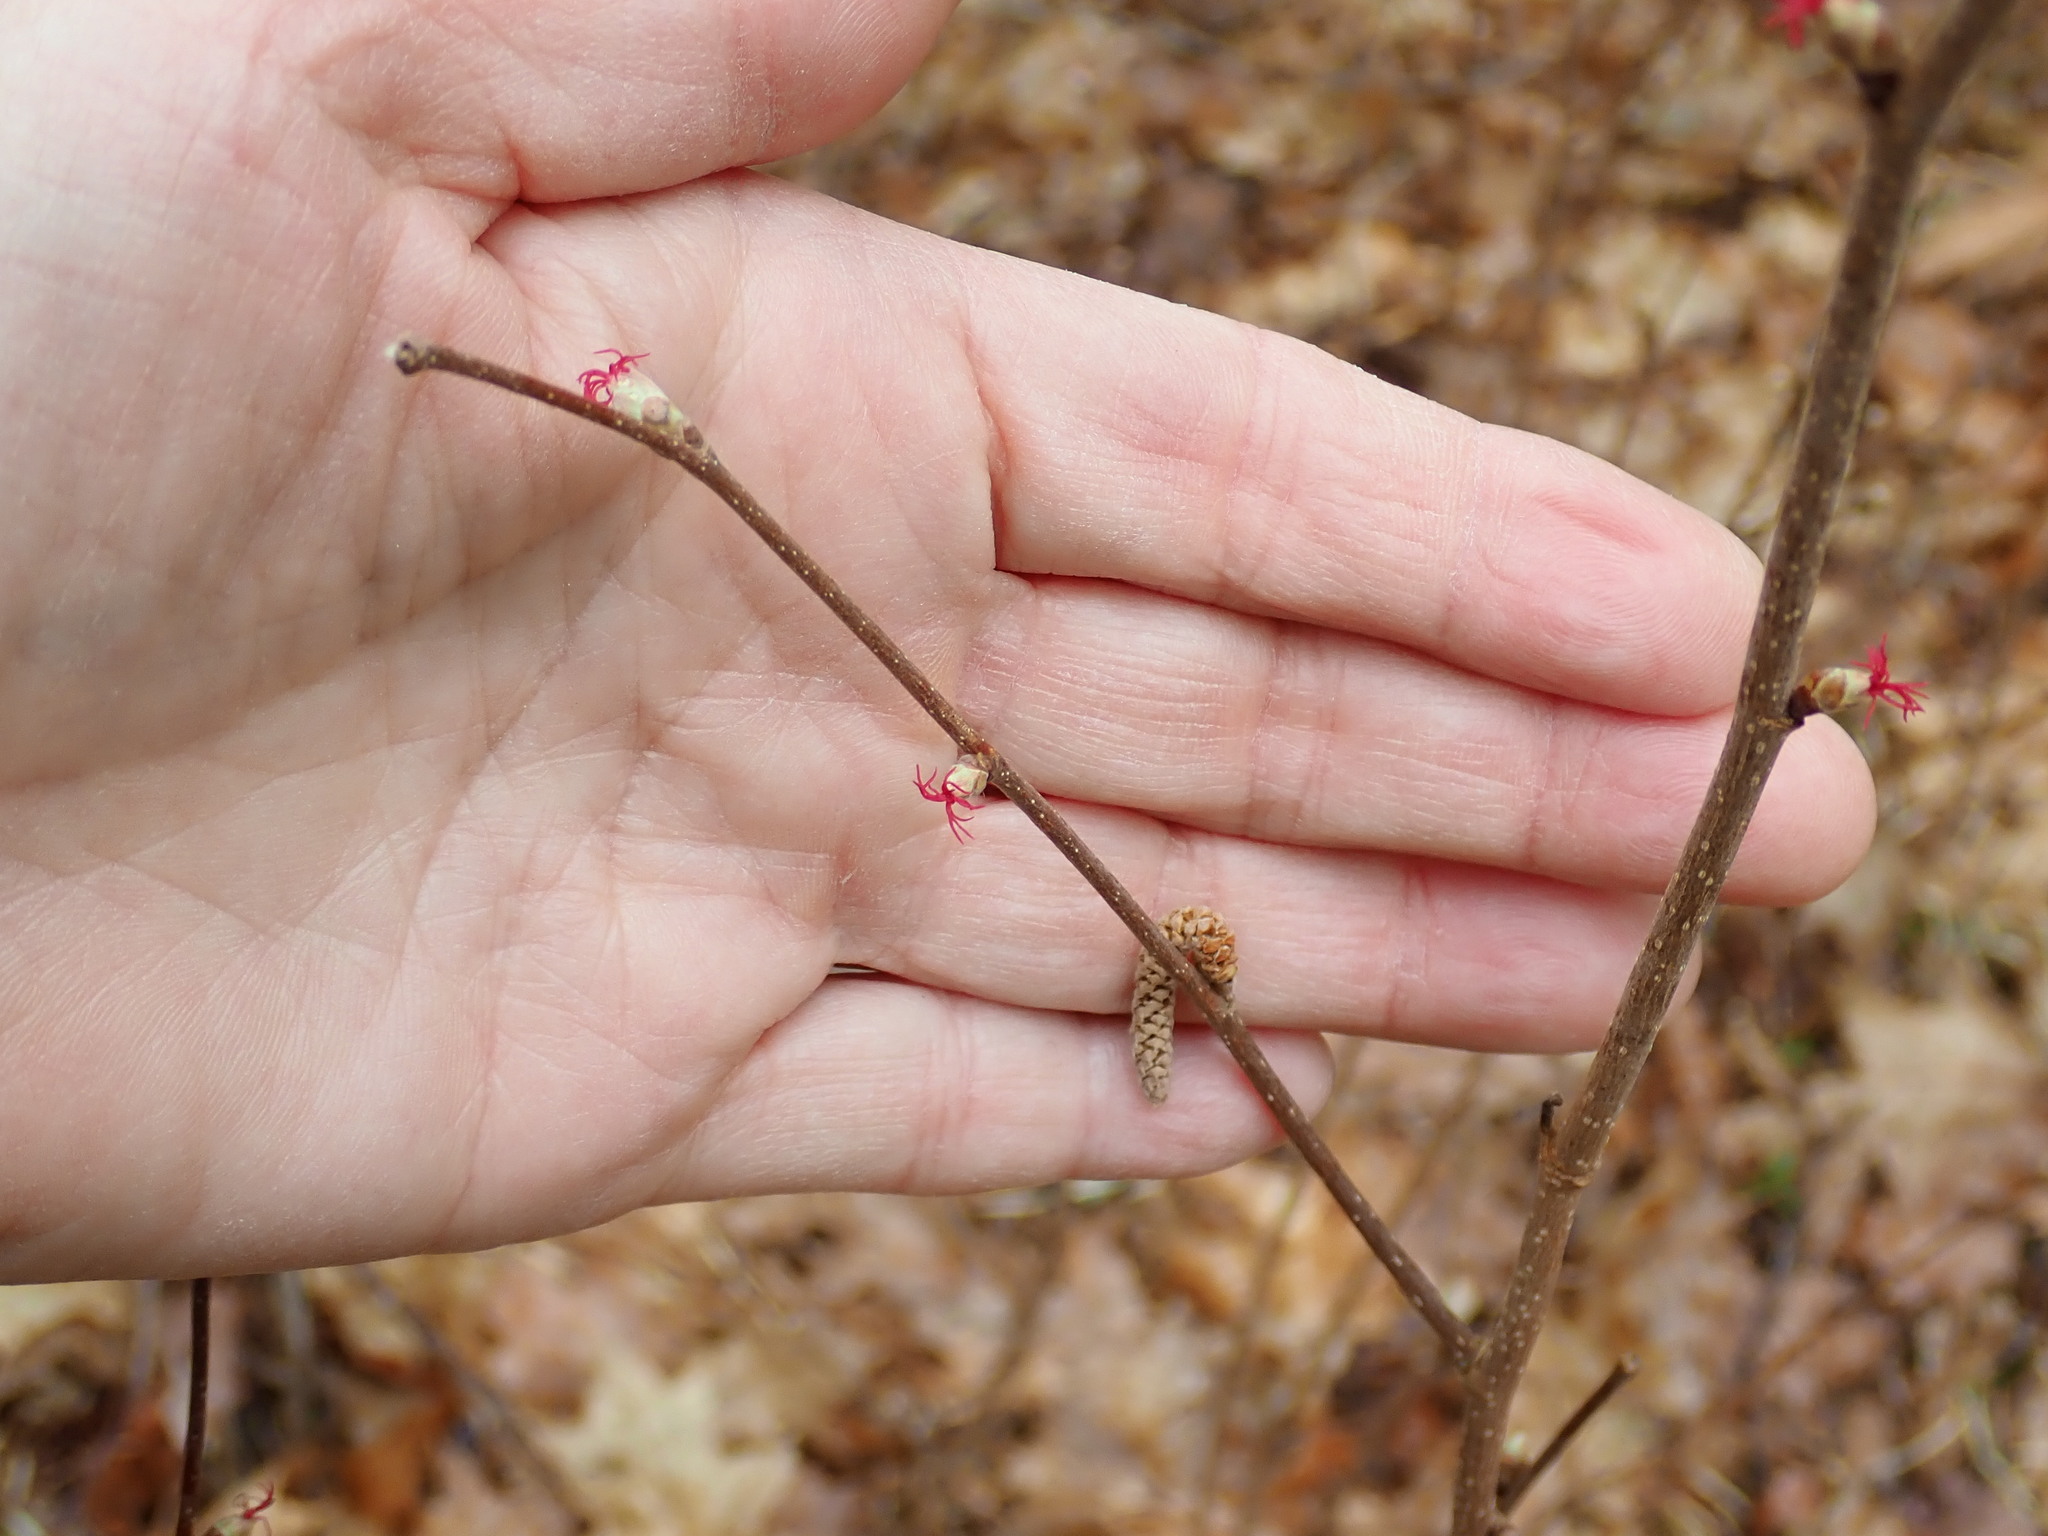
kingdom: Plantae
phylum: Tracheophyta
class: Magnoliopsida
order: Fagales
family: Betulaceae
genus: Corylus
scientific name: Corylus cornuta
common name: Beaked hazel
